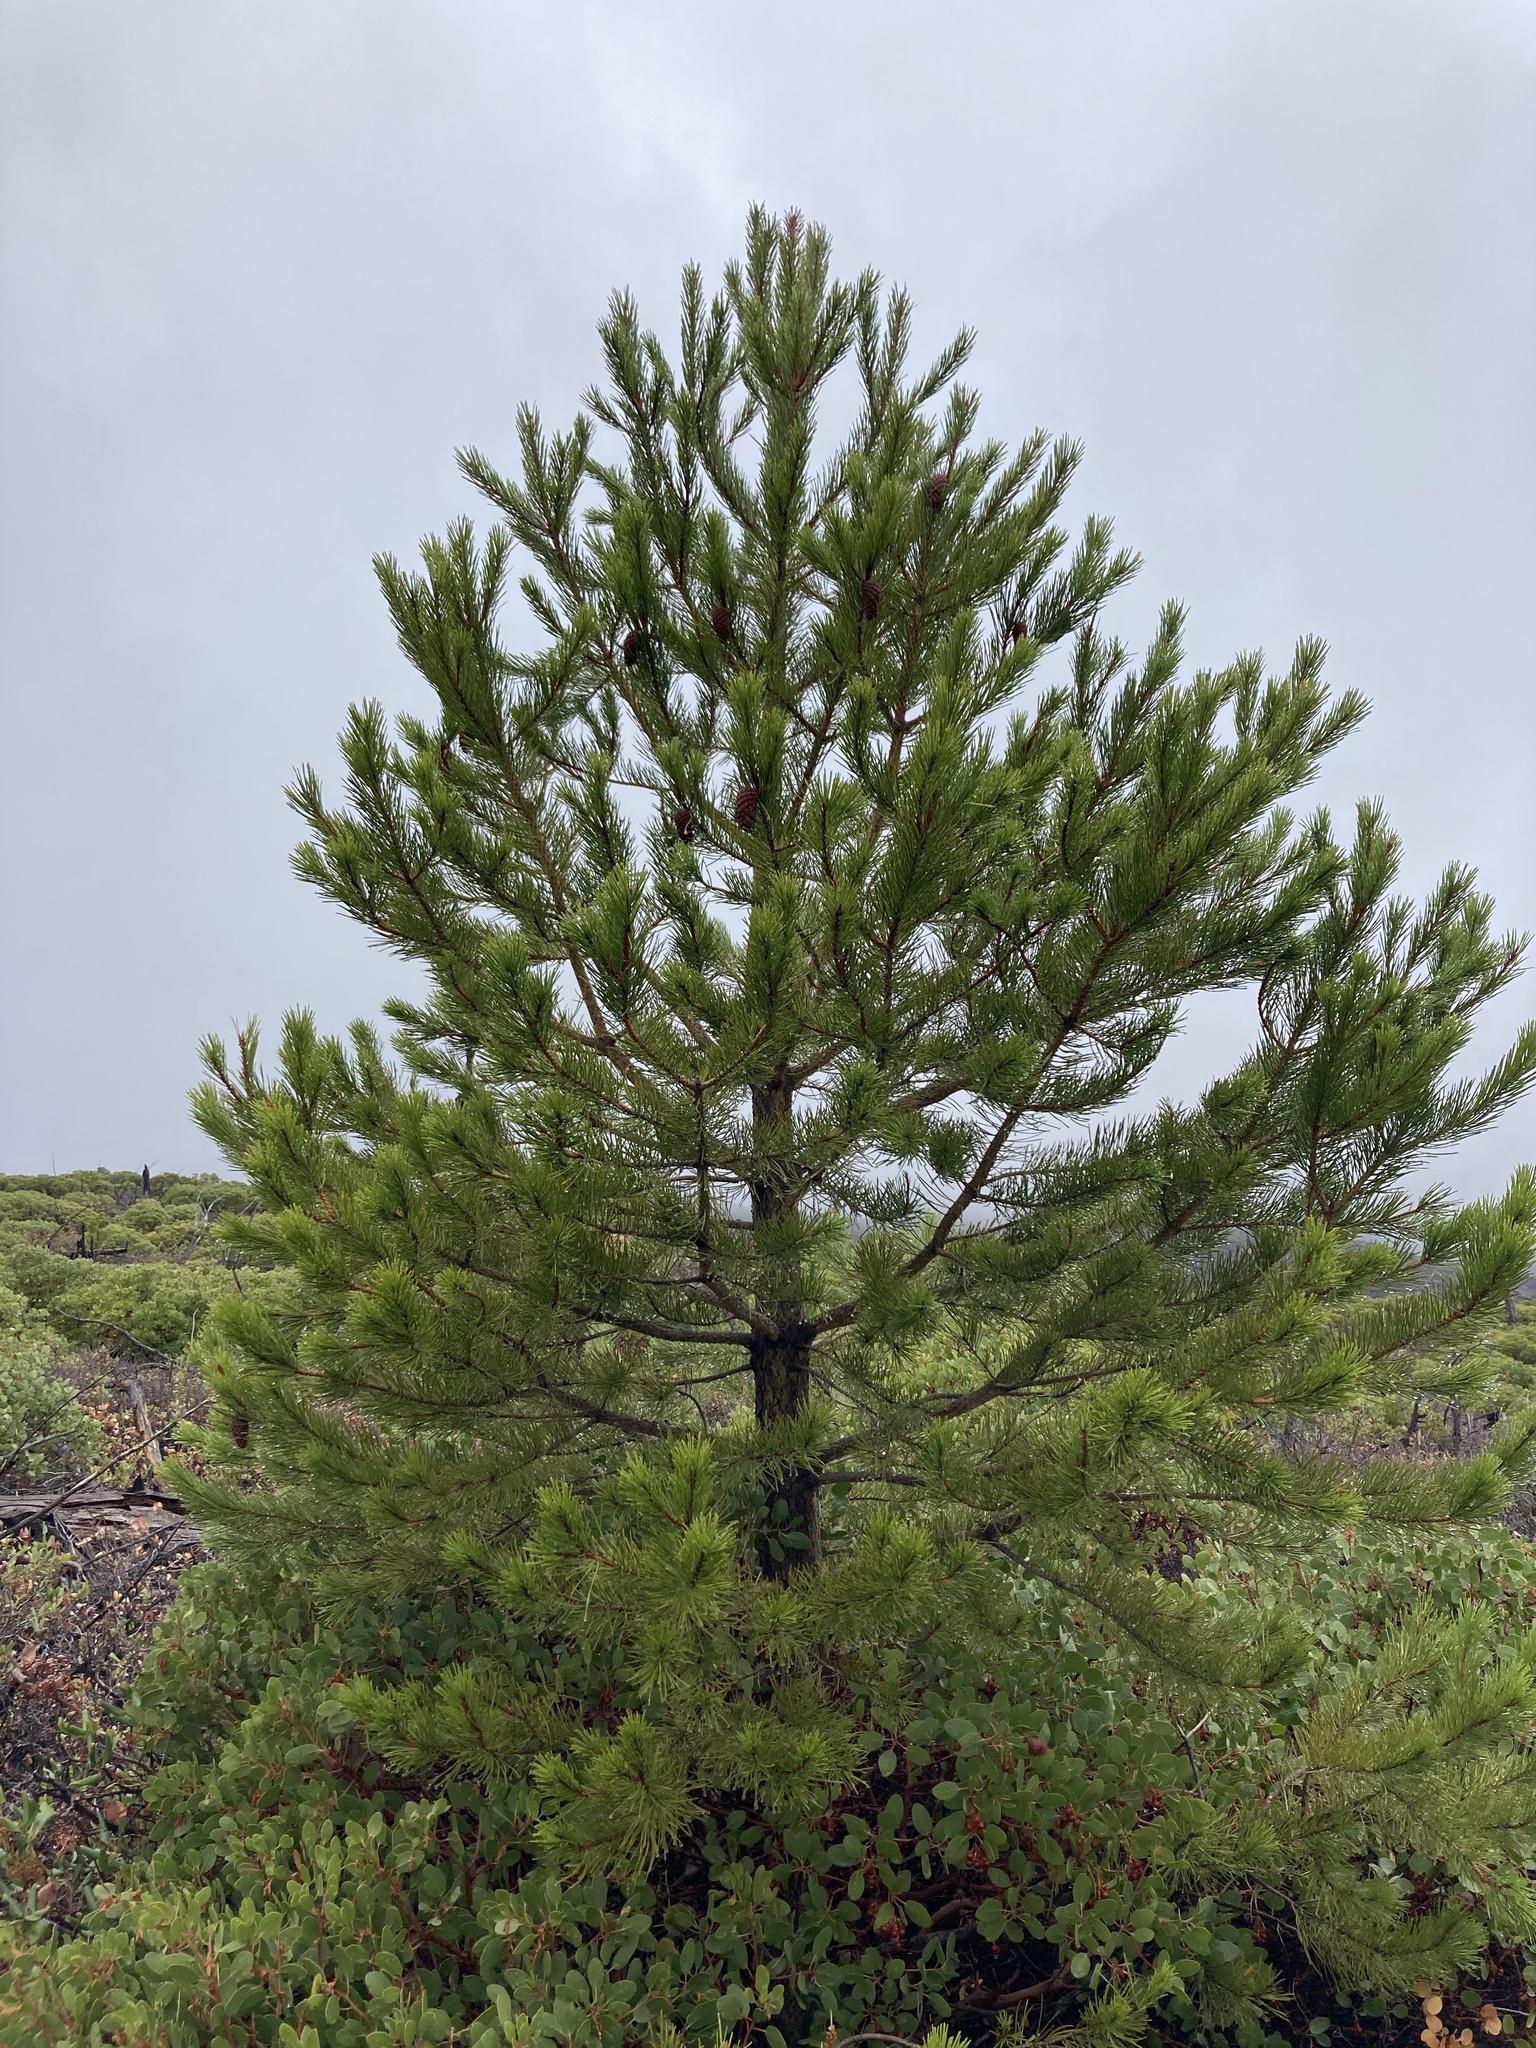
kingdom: Plantae
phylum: Tracheophyta
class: Pinopsida
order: Pinales
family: Pinaceae
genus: Pinus
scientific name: Pinus contorta
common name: Lodgepole pine
